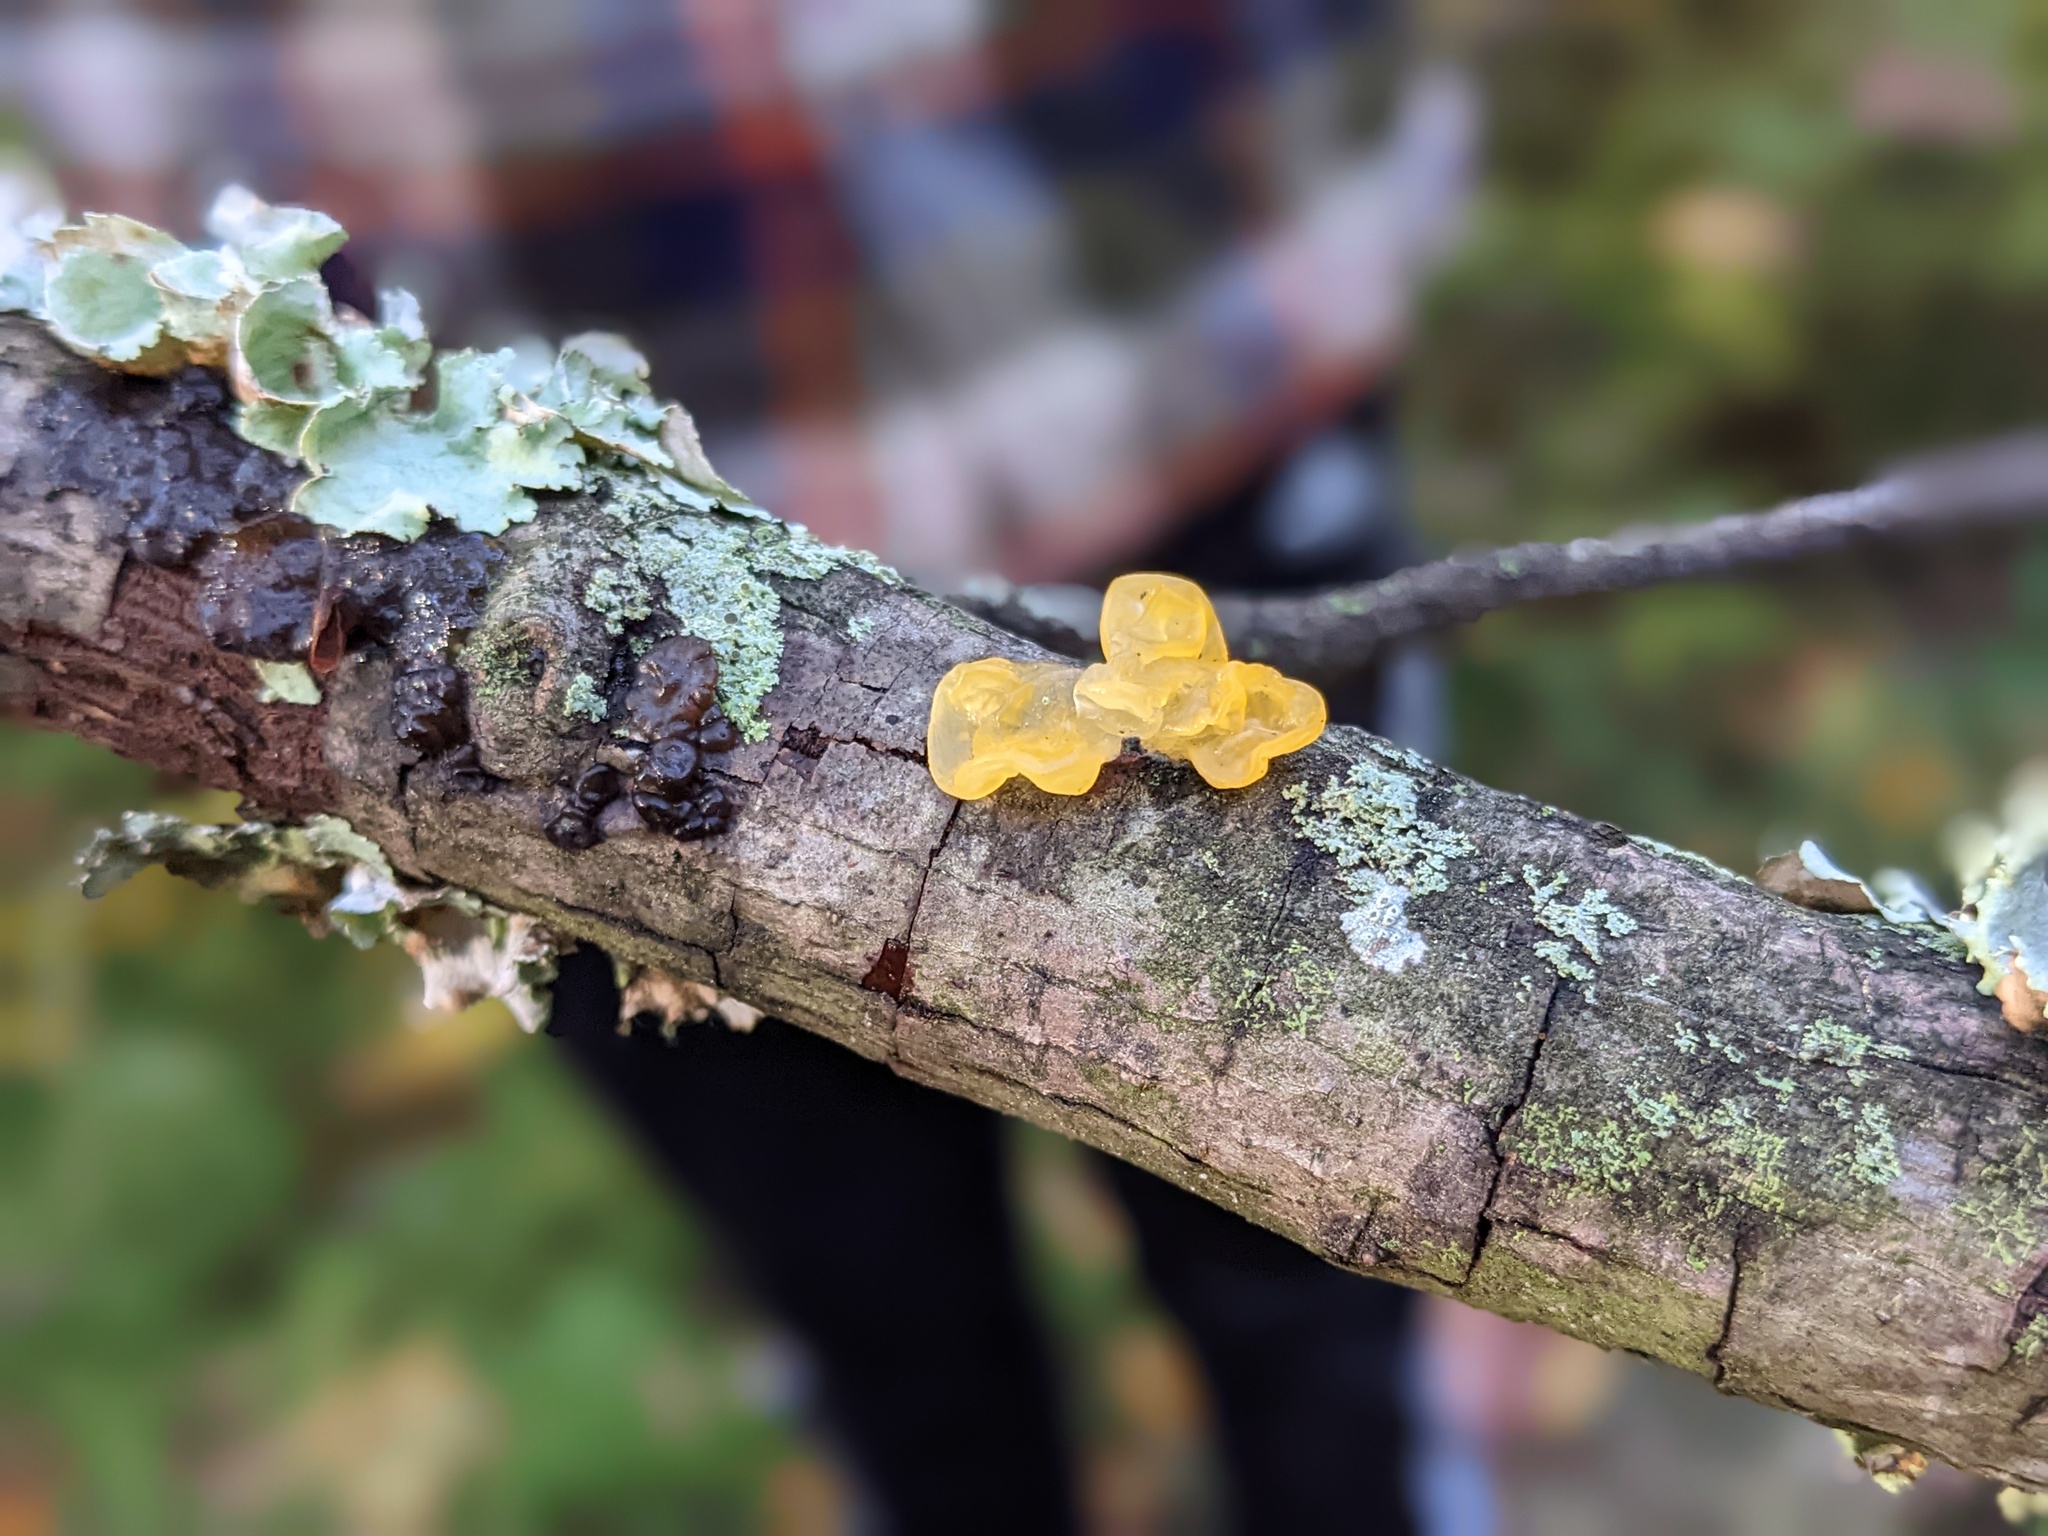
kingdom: Fungi
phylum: Basidiomycota
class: Tremellomycetes
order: Tremellales
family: Tremellaceae
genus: Tremella
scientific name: Tremella mesenterica
